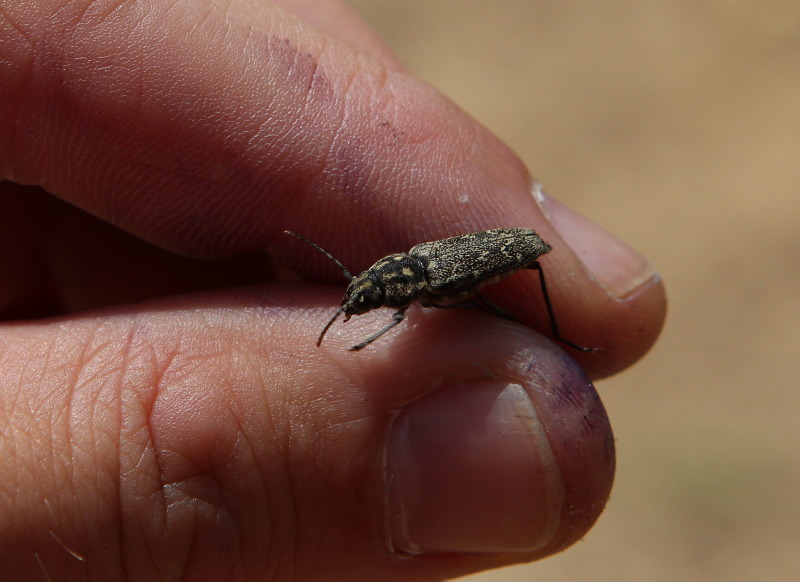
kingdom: Animalia
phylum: Arthropoda
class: Insecta
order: Coleoptera
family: Cerambycidae
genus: Xylotrechus
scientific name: Xylotrechus rusticus
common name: Grey tiger long-horned beetle
